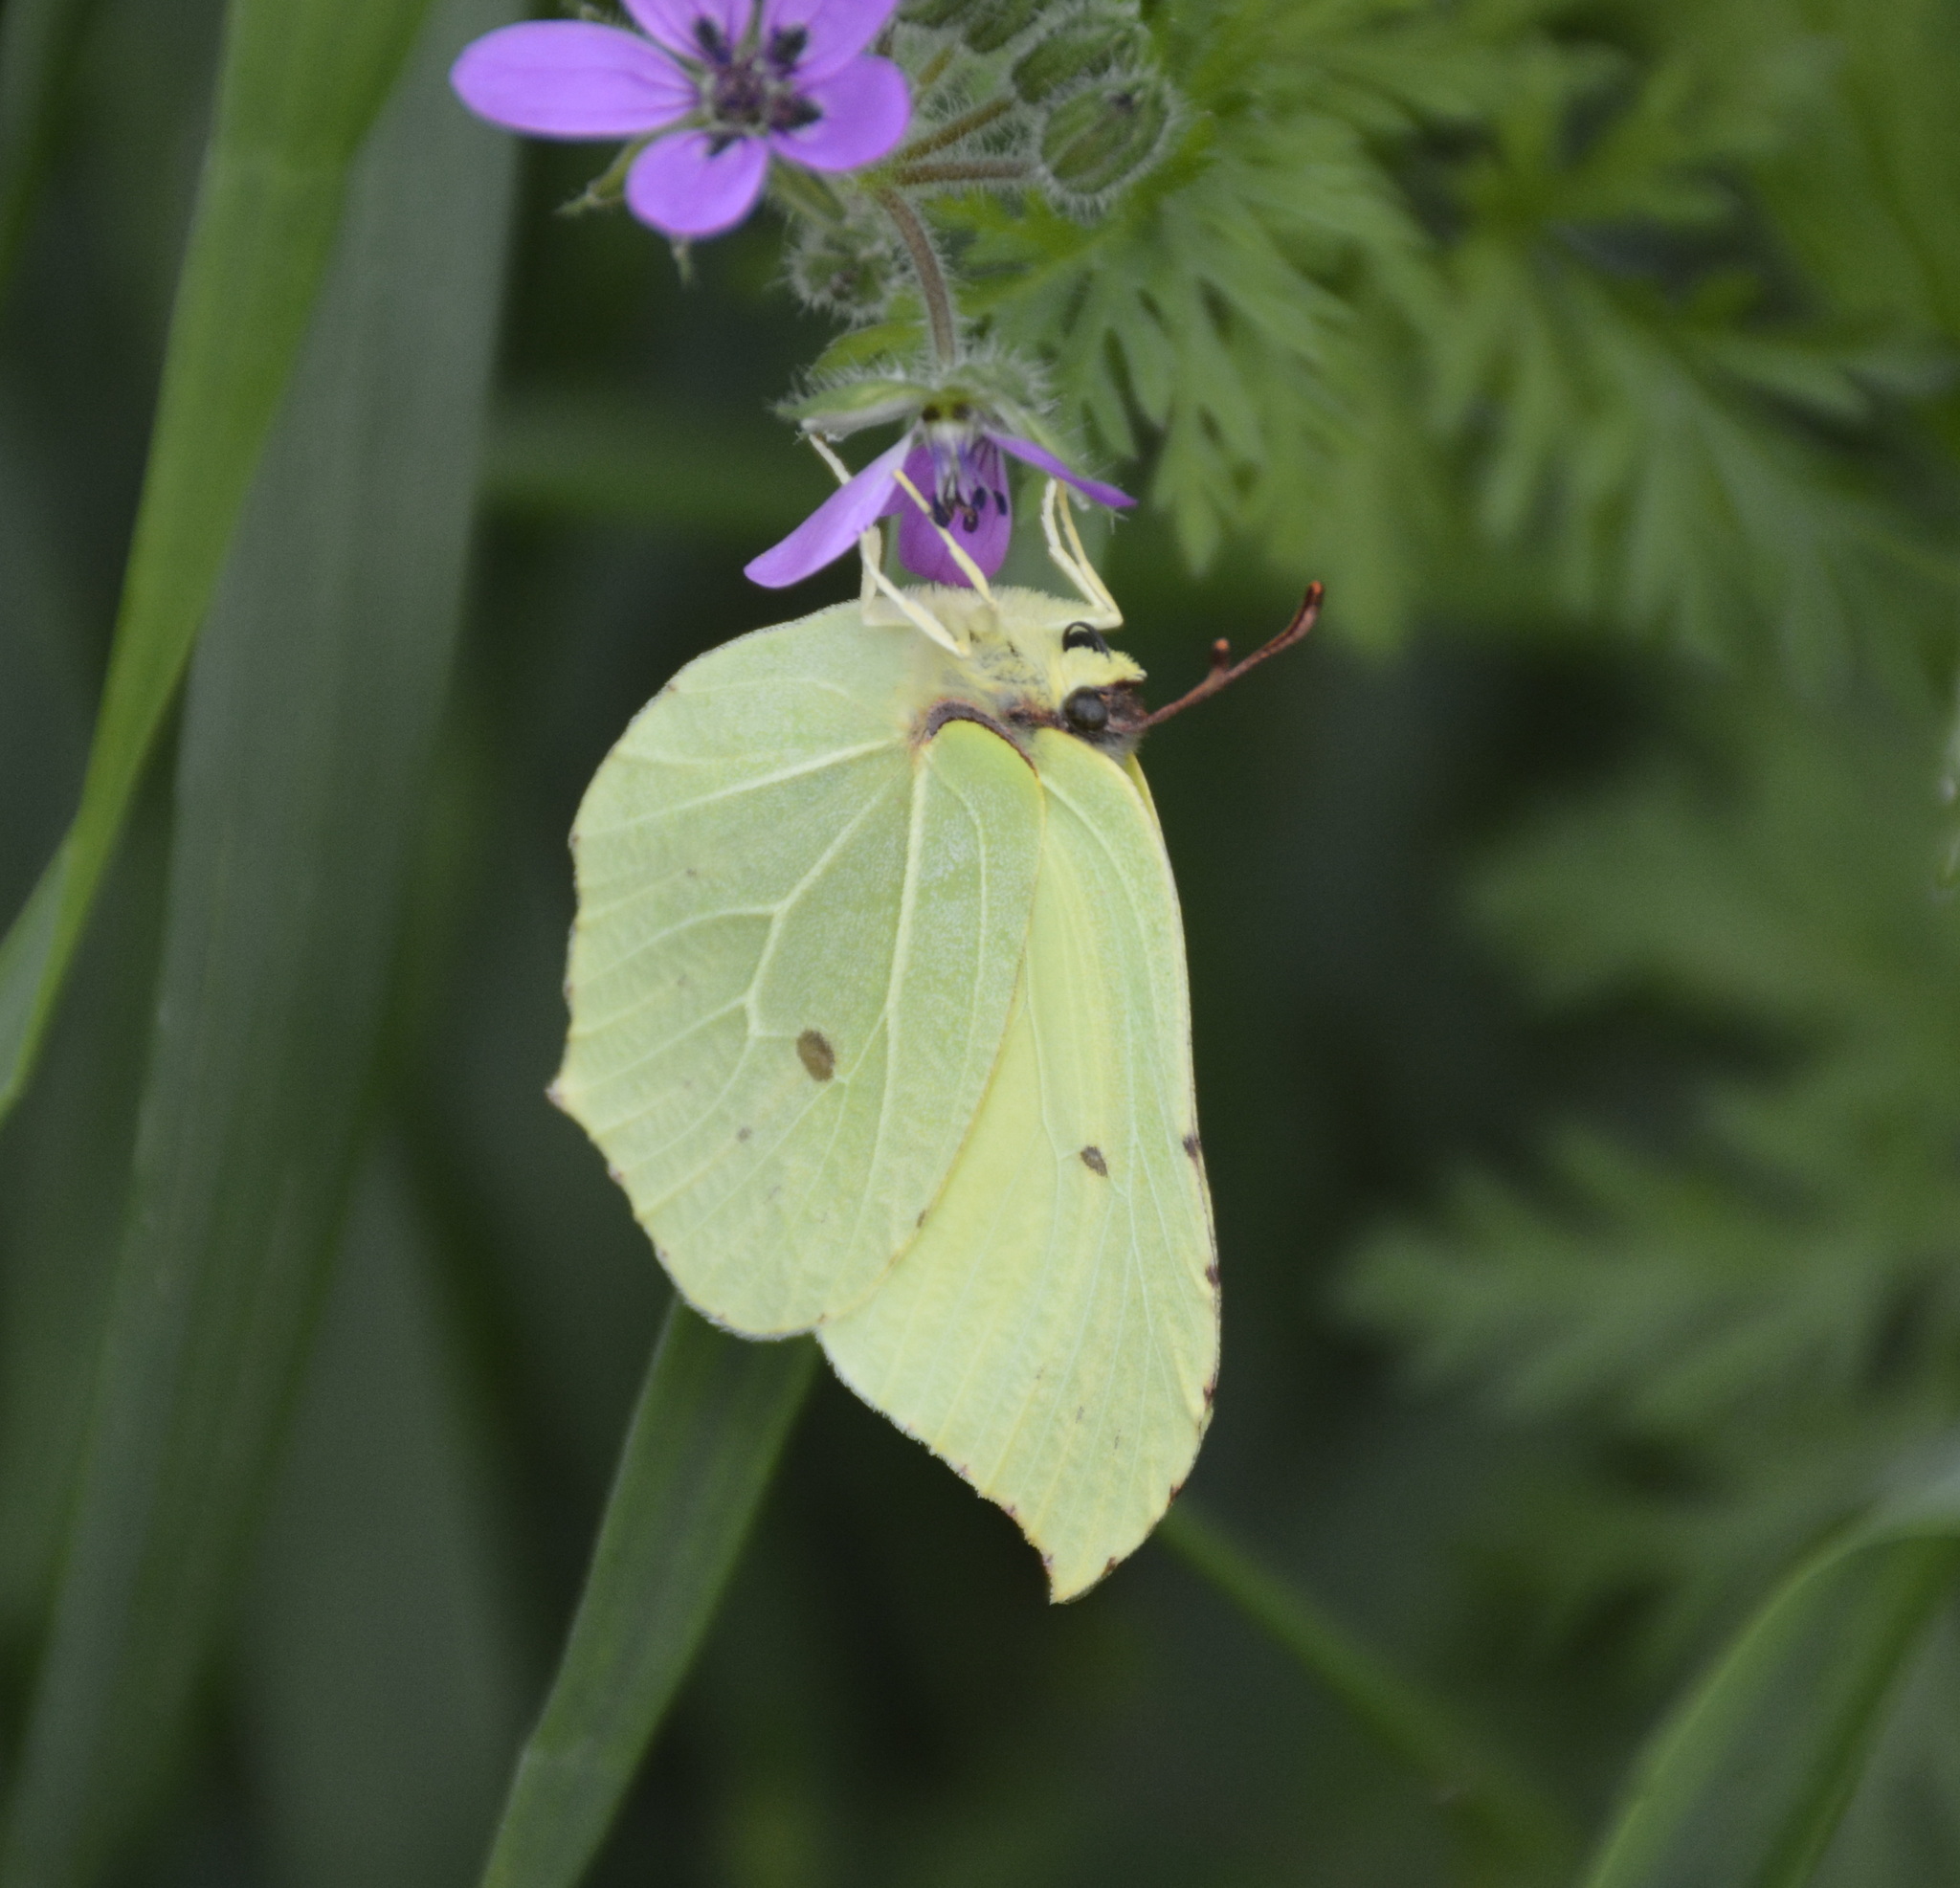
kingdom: Animalia
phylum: Arthropoda
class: Insecta
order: Lepidoptera
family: Pieridae
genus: Gonepteryx
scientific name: Gonepteryx rhamni
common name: Brimstone
